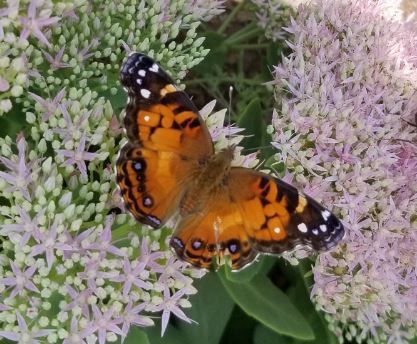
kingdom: Animalia
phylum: Arthropoda
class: Insecta
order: Lepidoptera
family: Nymphalidae
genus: Vanessa
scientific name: Vanessa virginiensis
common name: American lady
